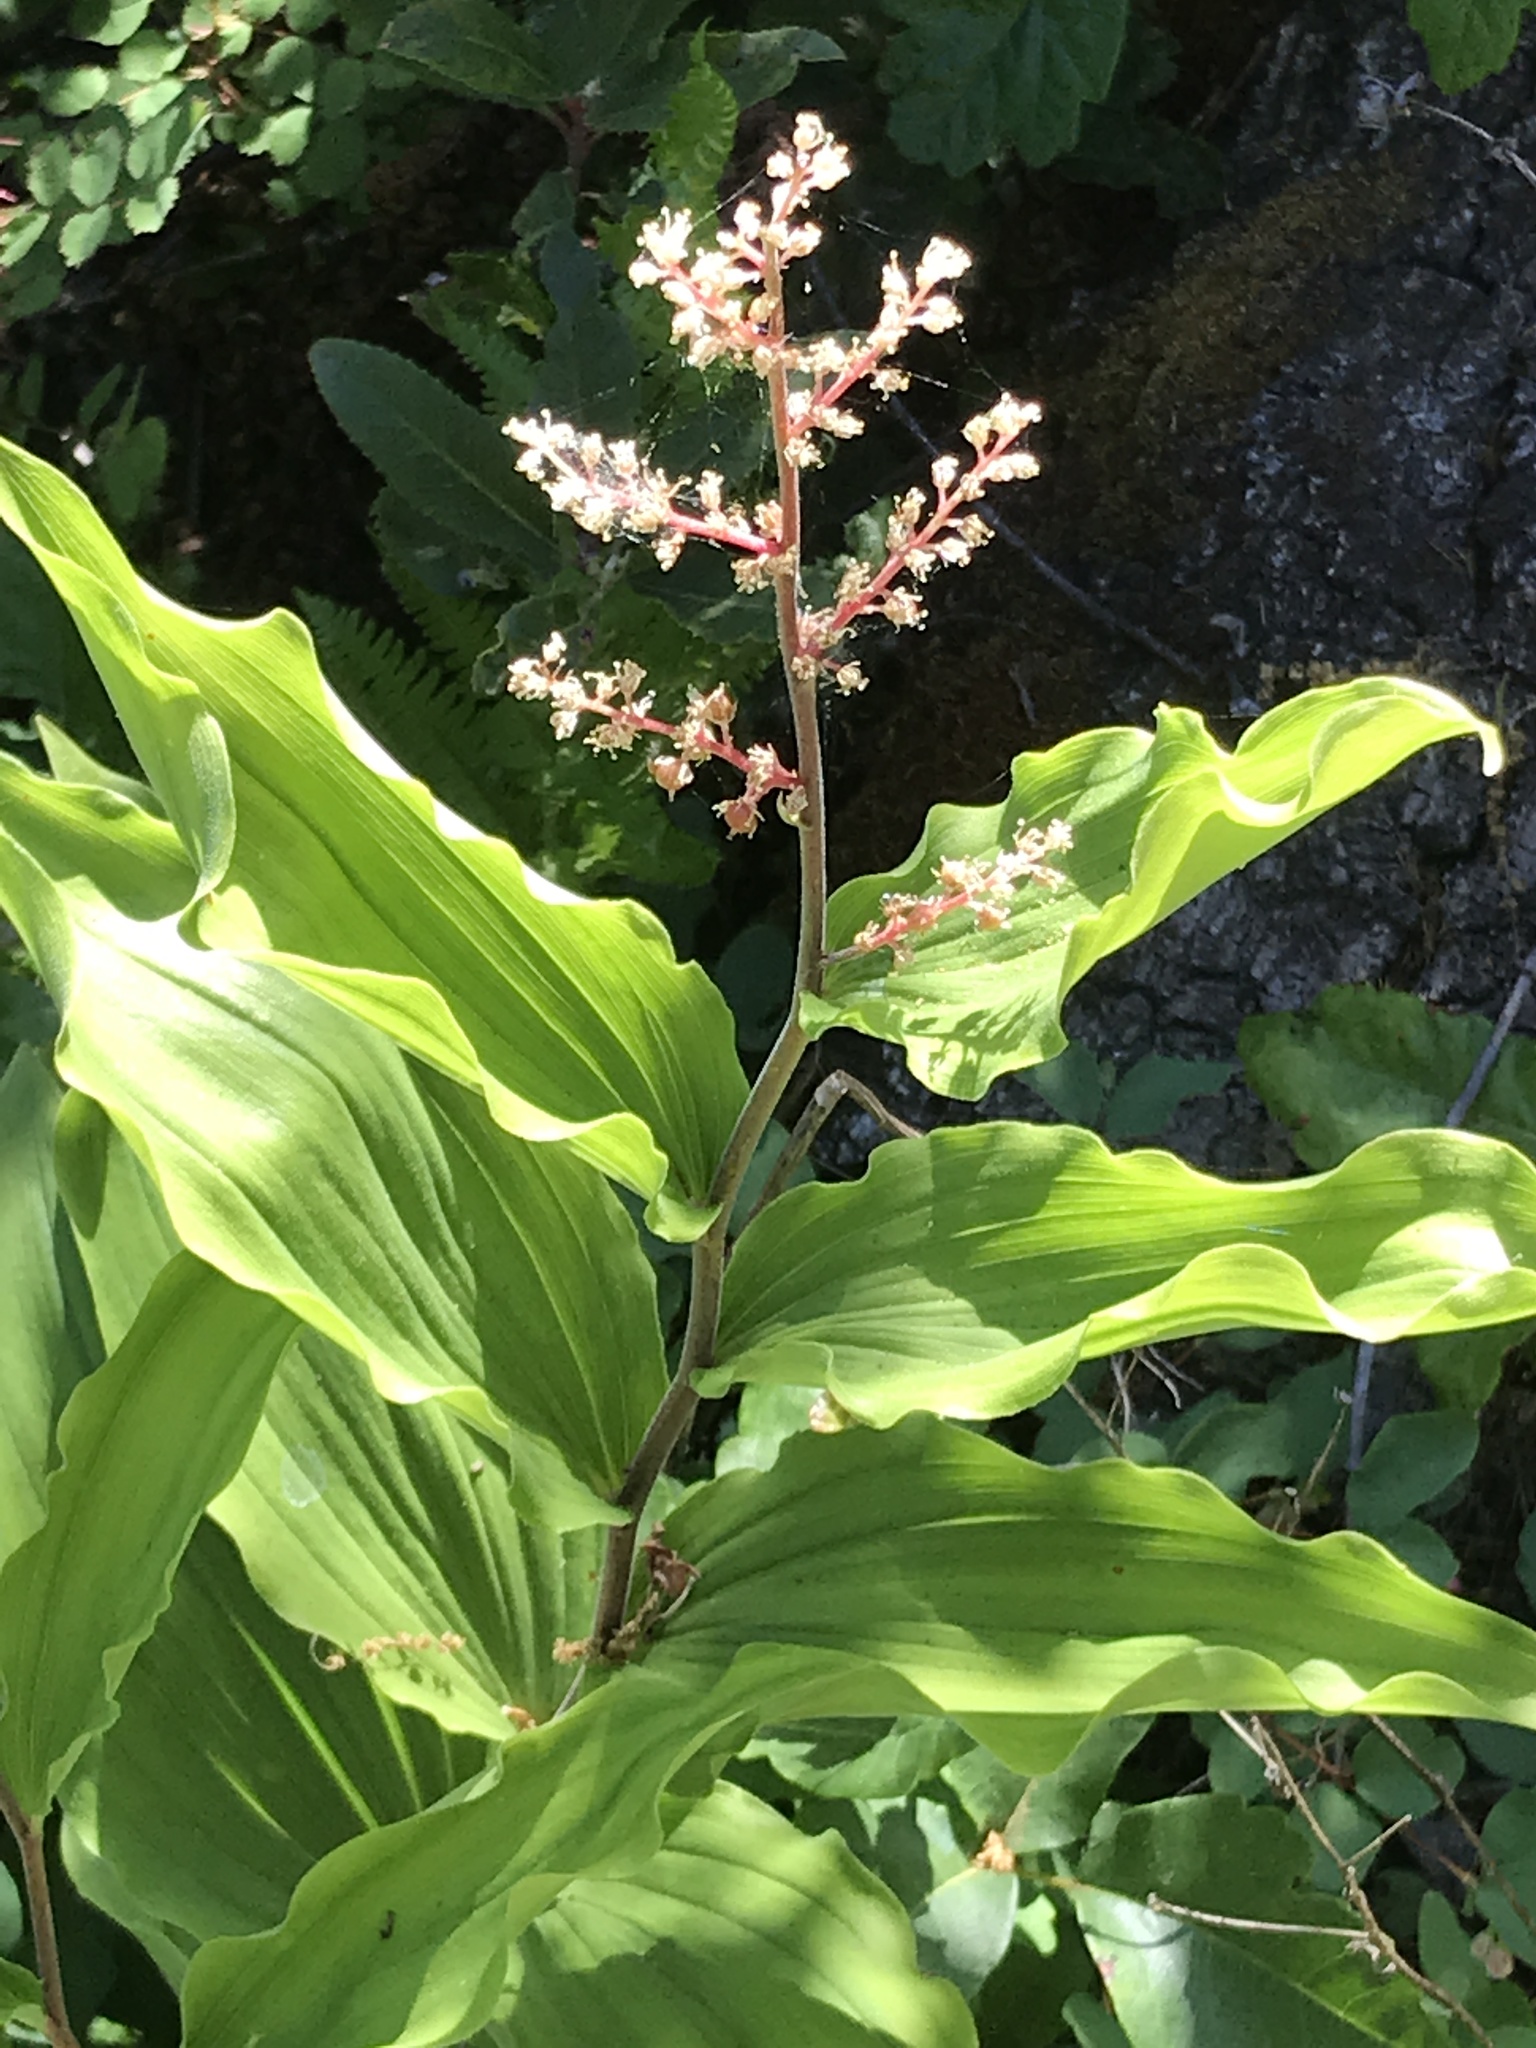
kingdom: Plantae
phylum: Tracheophyta
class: Liliopsida
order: Asparagales
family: Asparagaceae
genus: Maianthemum
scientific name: Maianthemum racemosum
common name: False spikenard
